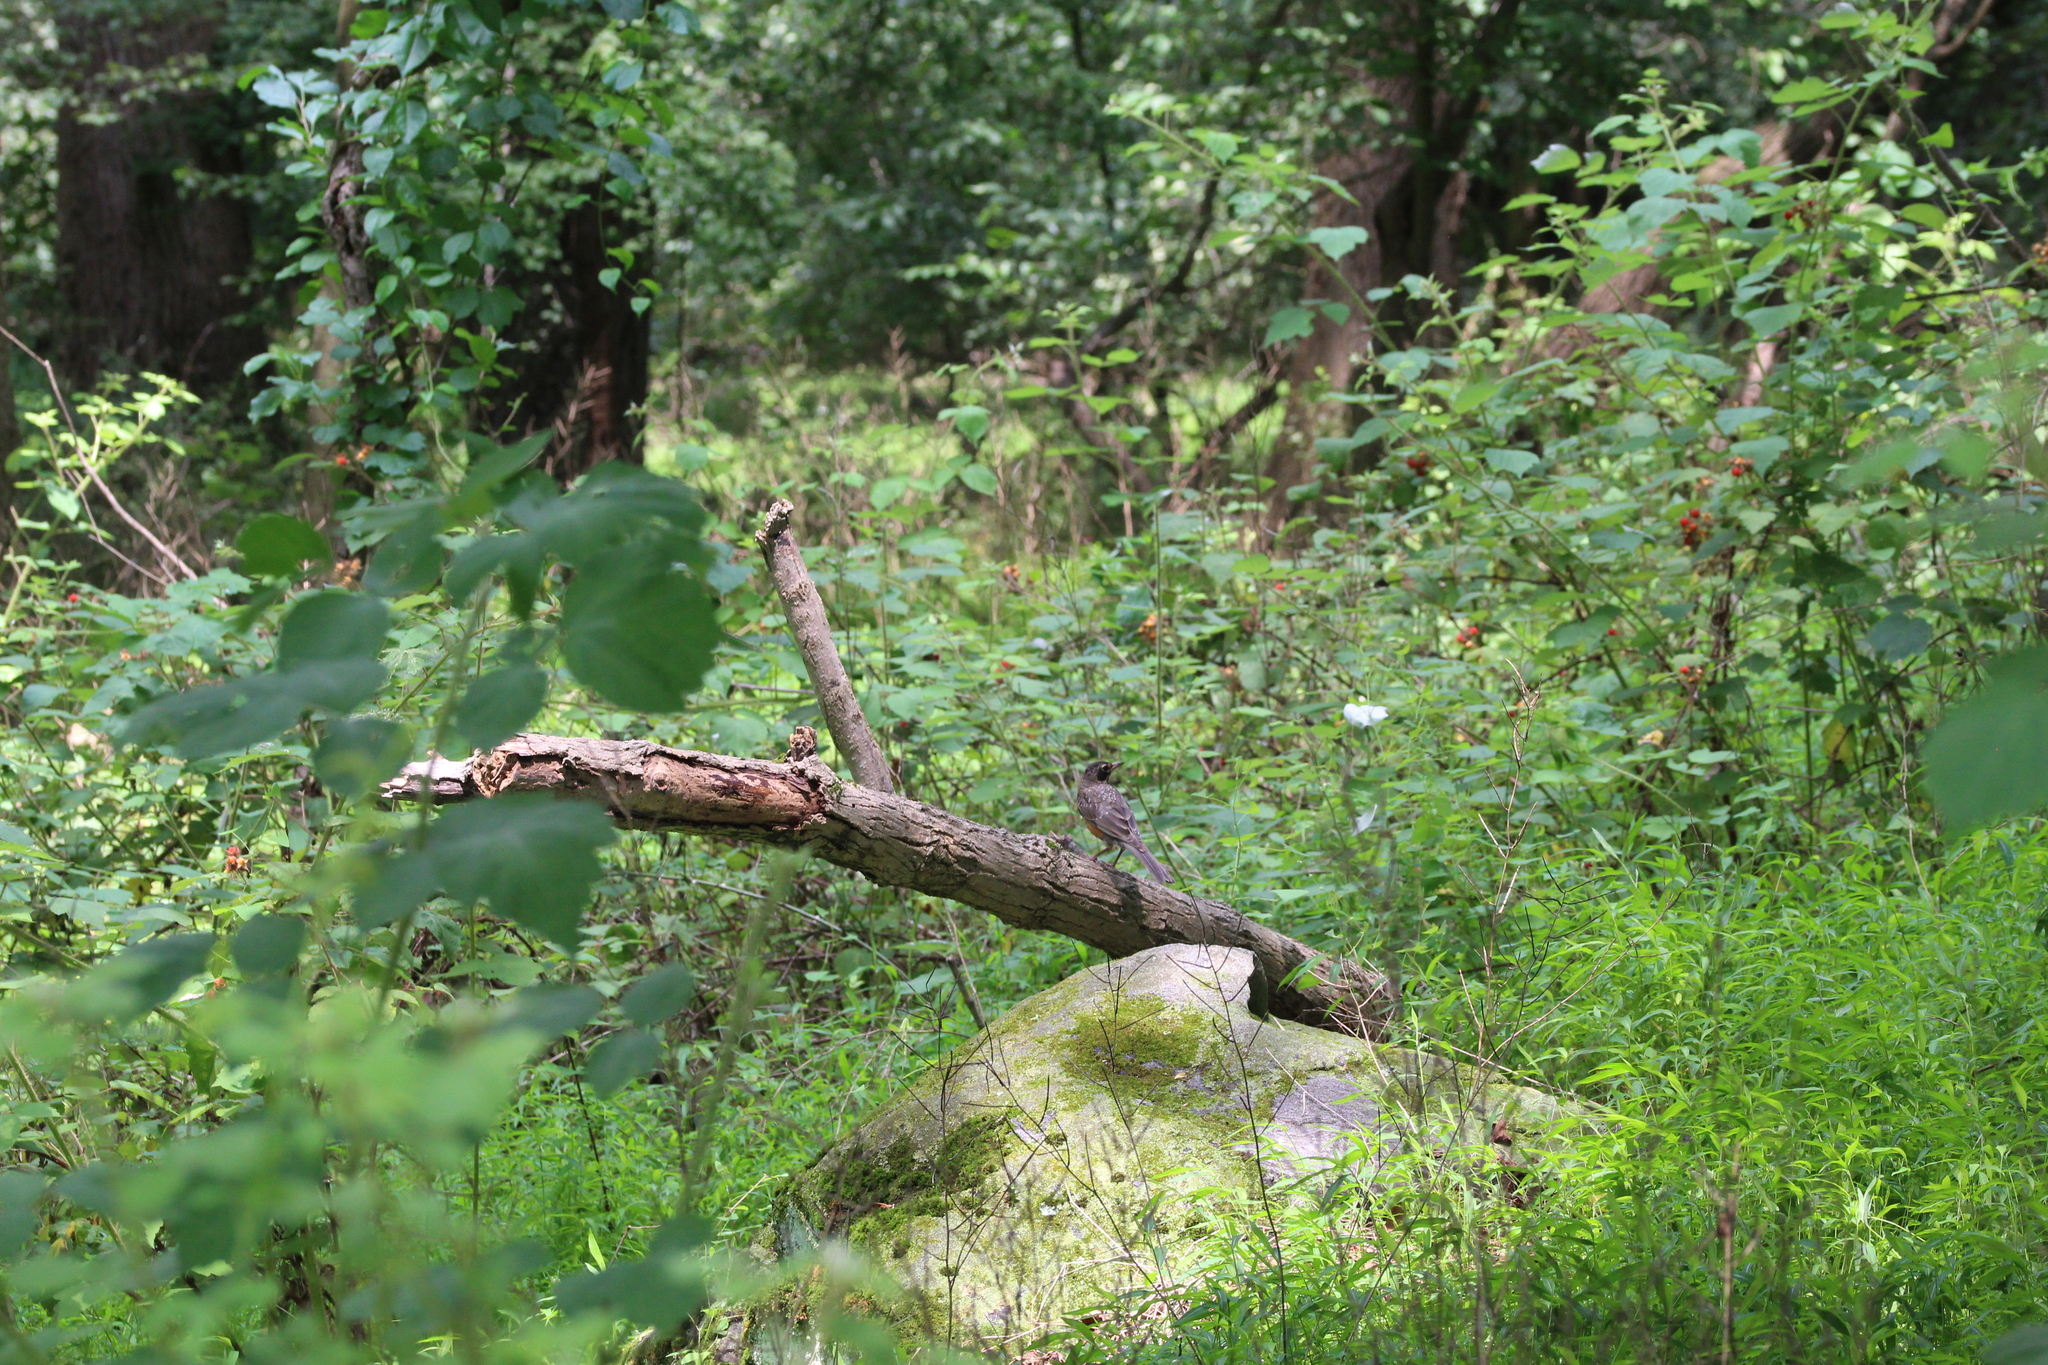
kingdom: Animalia
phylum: Chordata
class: Aves
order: Passeriformes
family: Turdidae
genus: Turdus
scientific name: Turdus migratorius
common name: American robin
